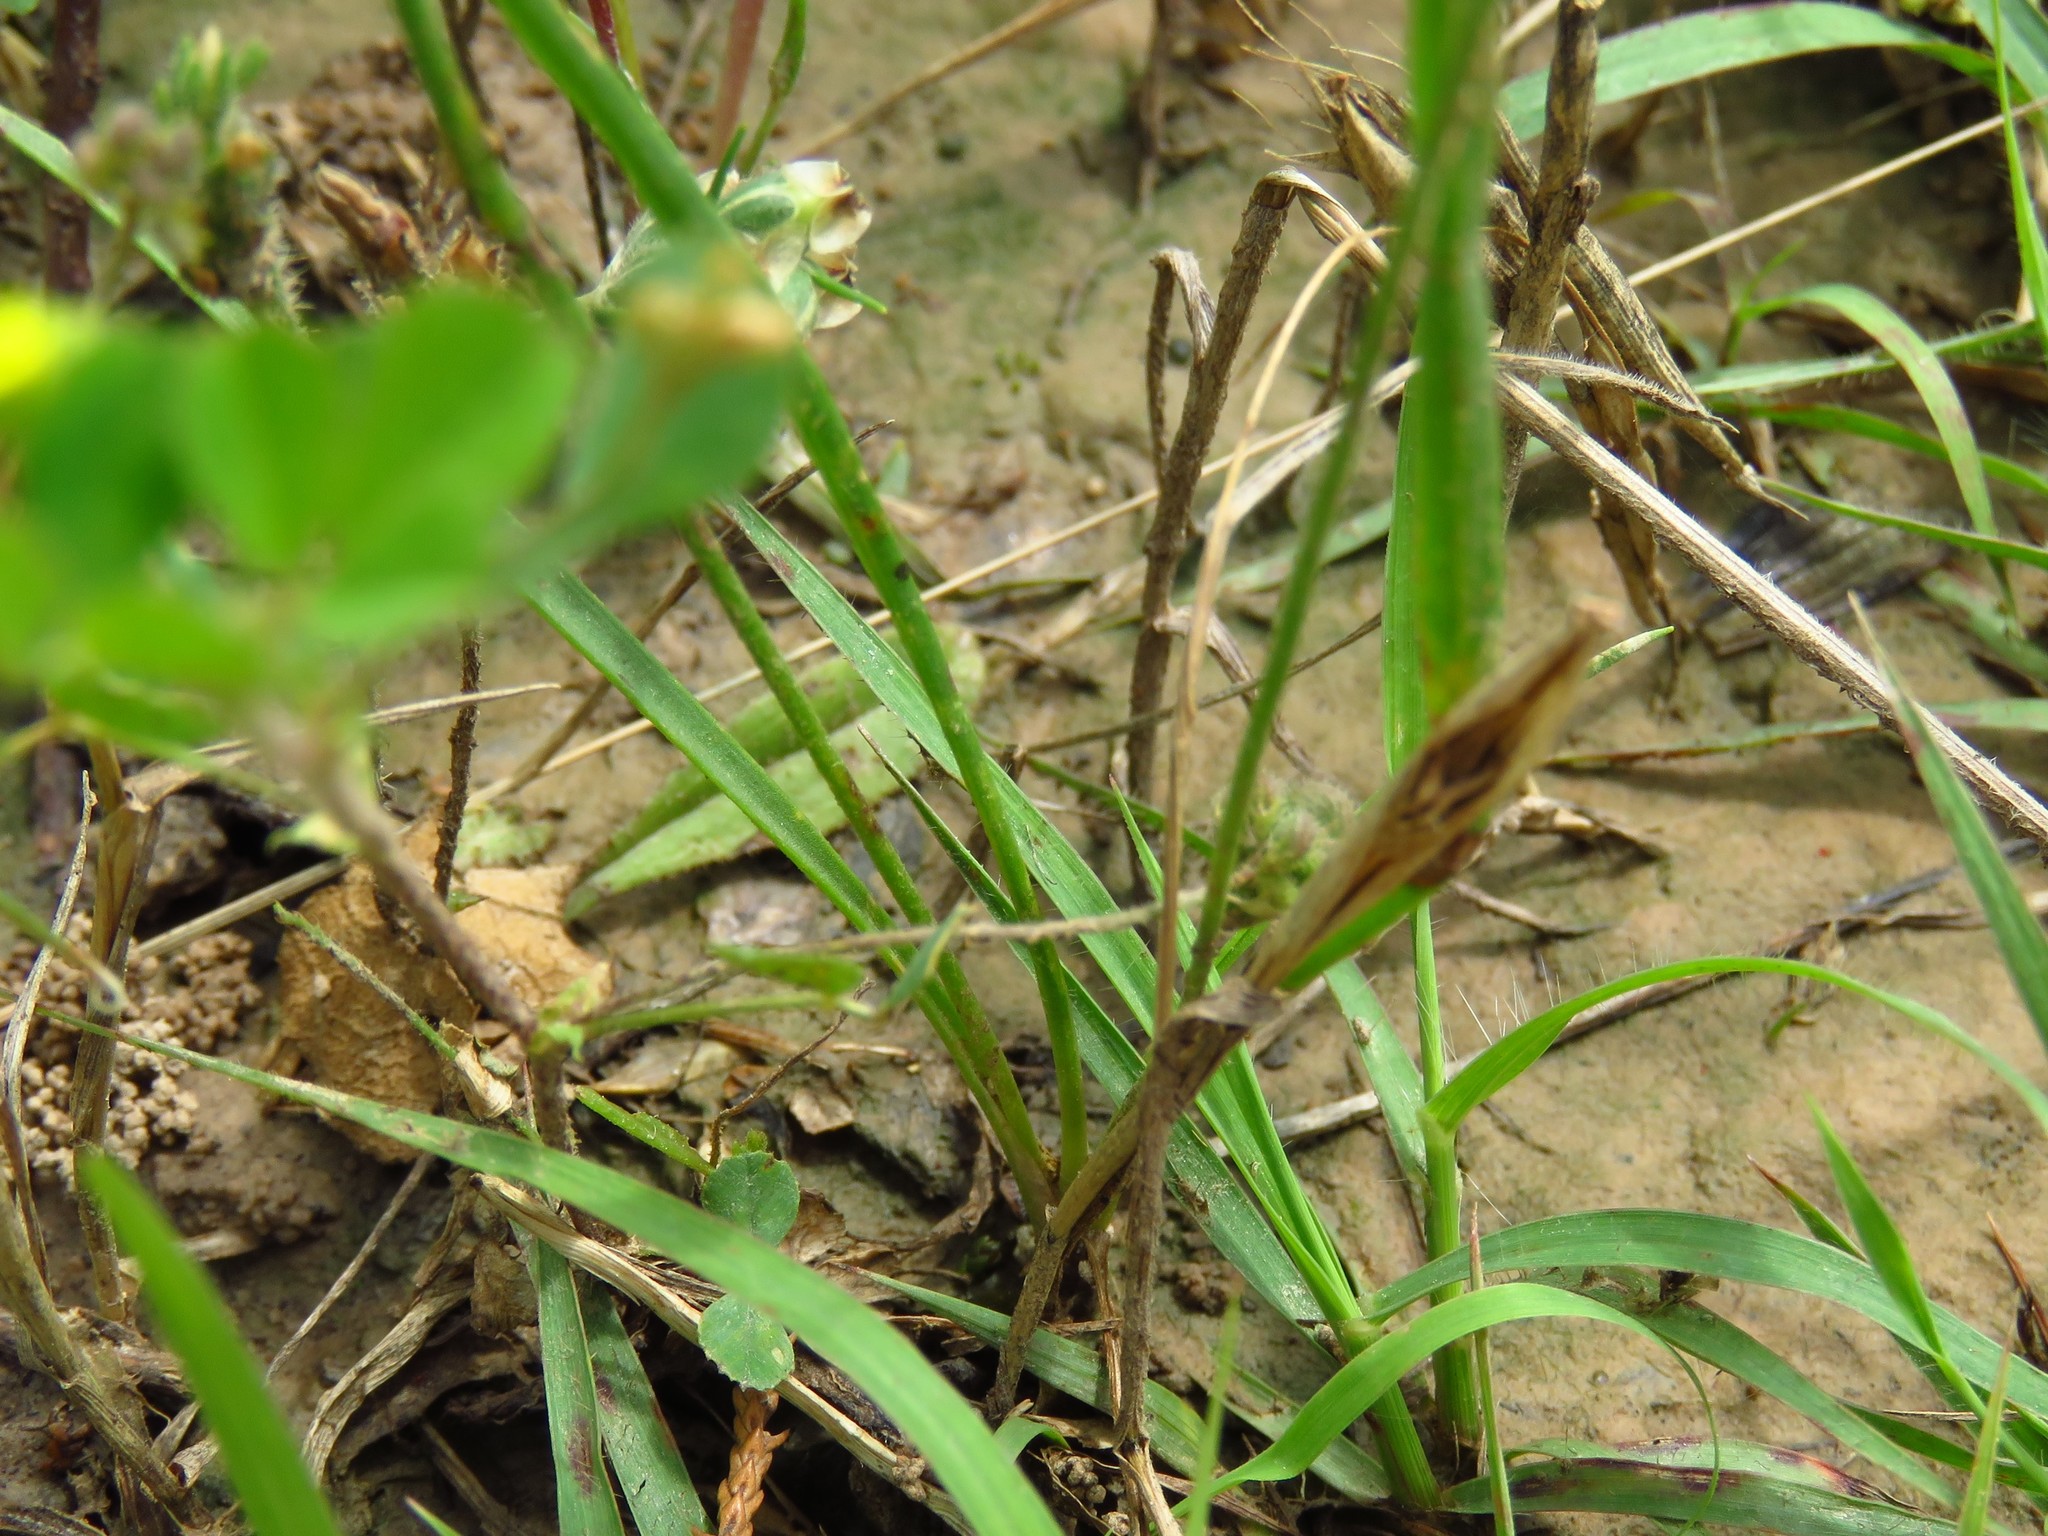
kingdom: Plantae
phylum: Tracheophyta
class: Magnoliopsida
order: Lamiales
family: Plantaginaceae
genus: Plantago
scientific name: Plantago aristata
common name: Bracted plantain
